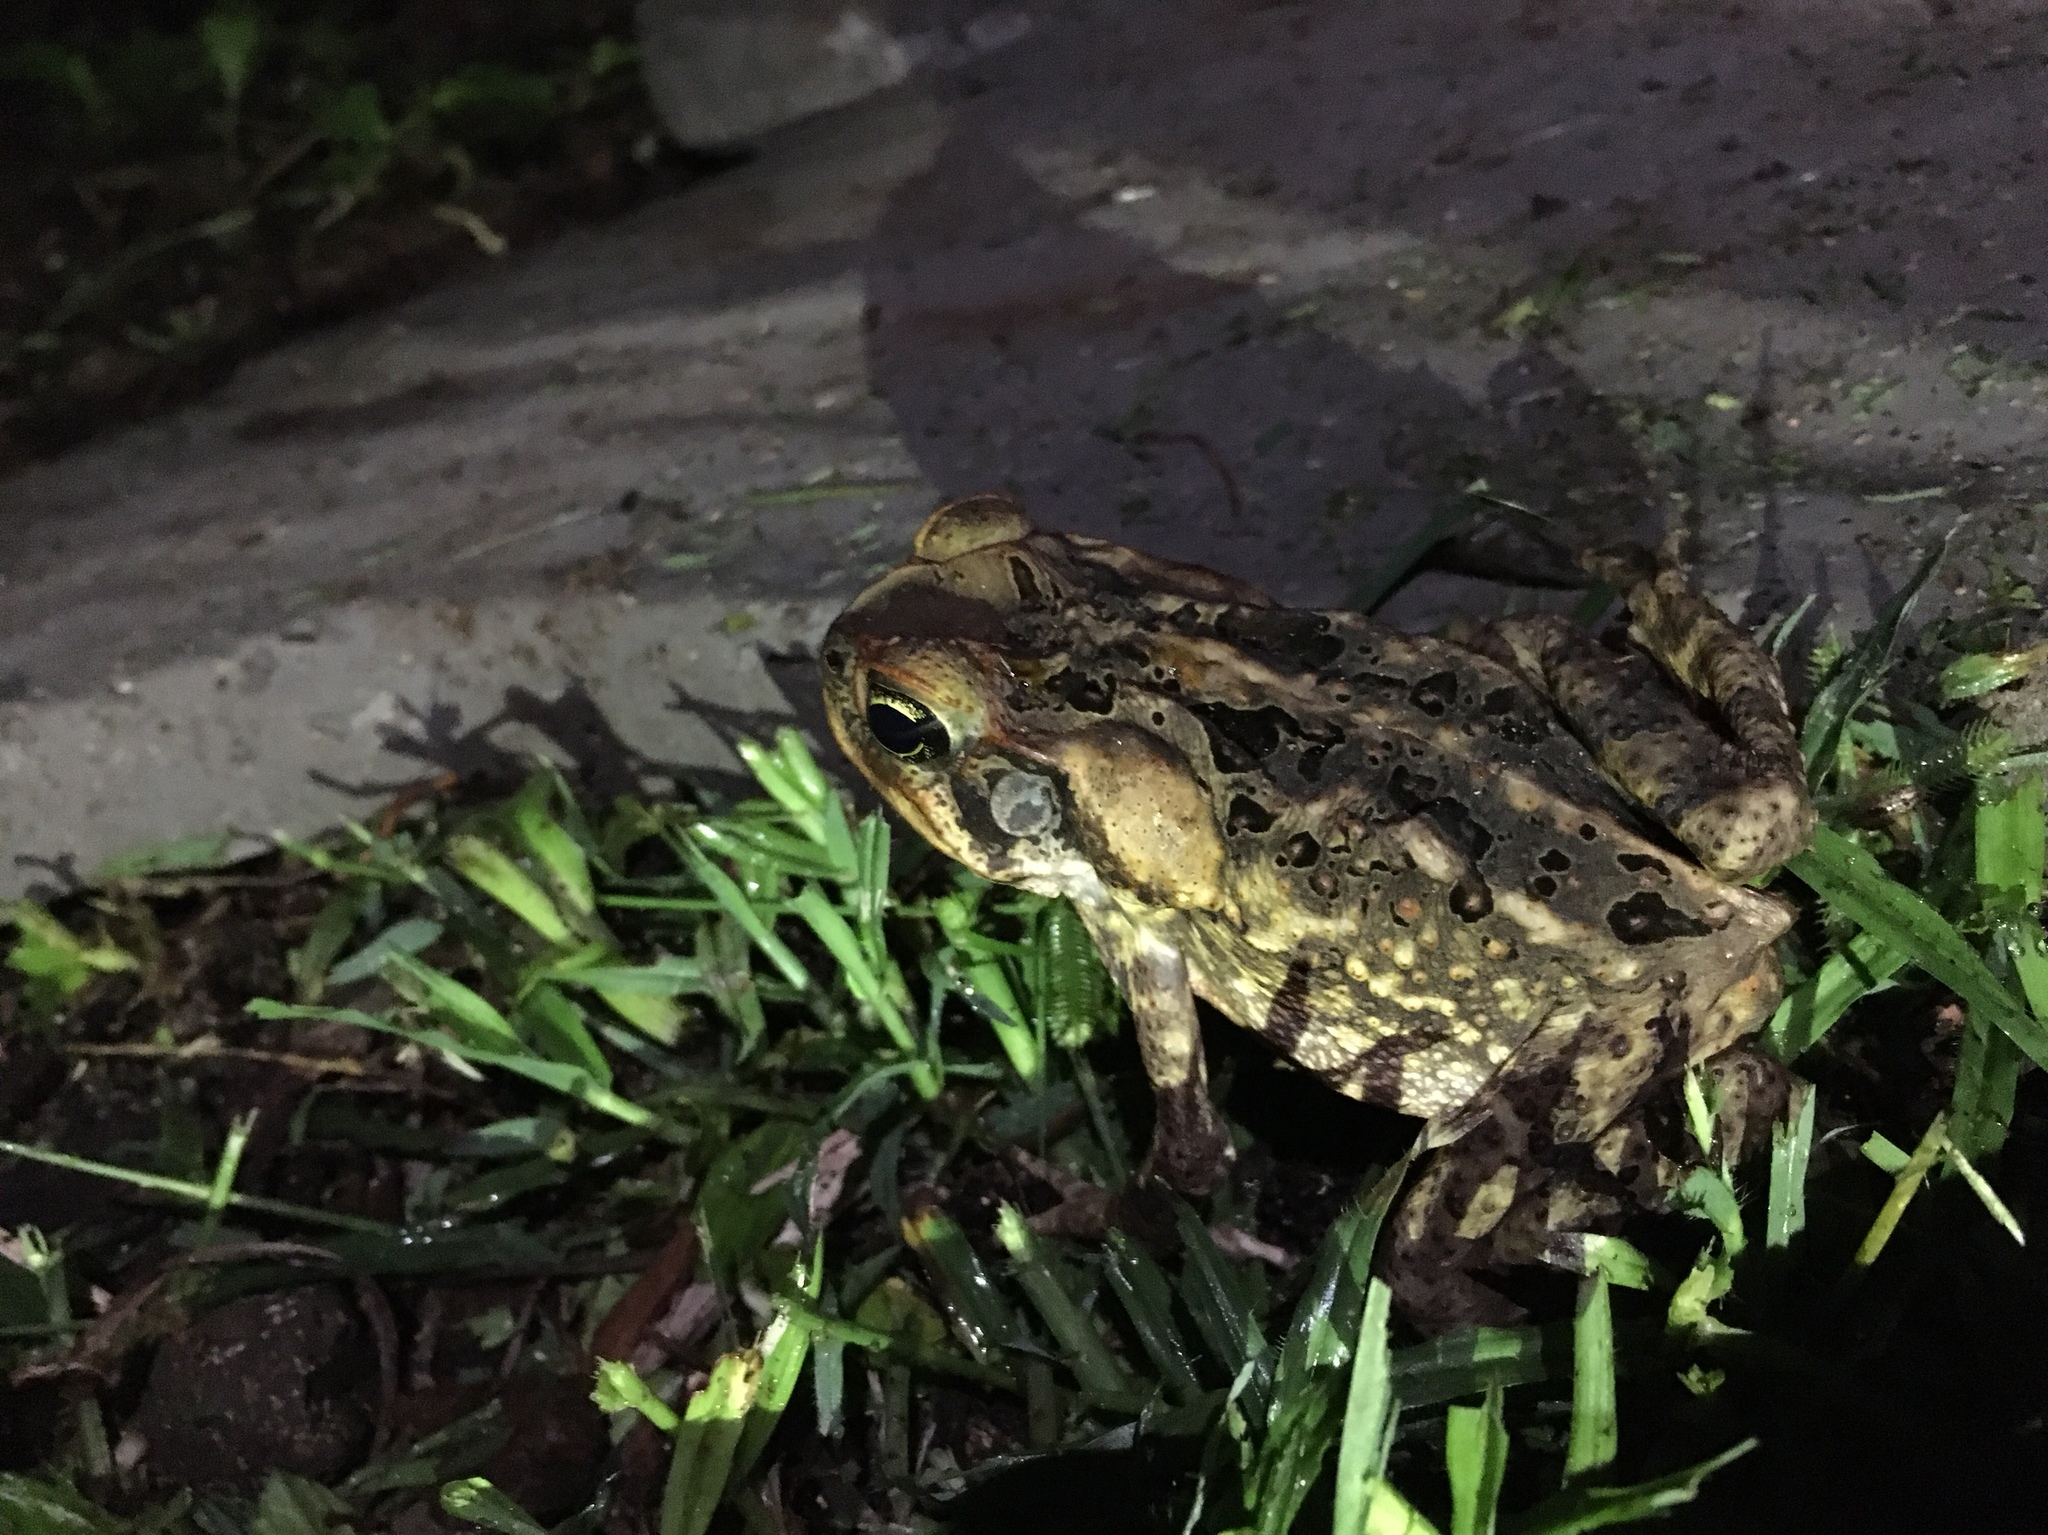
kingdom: Animalia
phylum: Chordata
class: Amphibia
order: Anura
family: Bufonidae
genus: Rhinella
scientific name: Rhinella marina
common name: Cane toad
